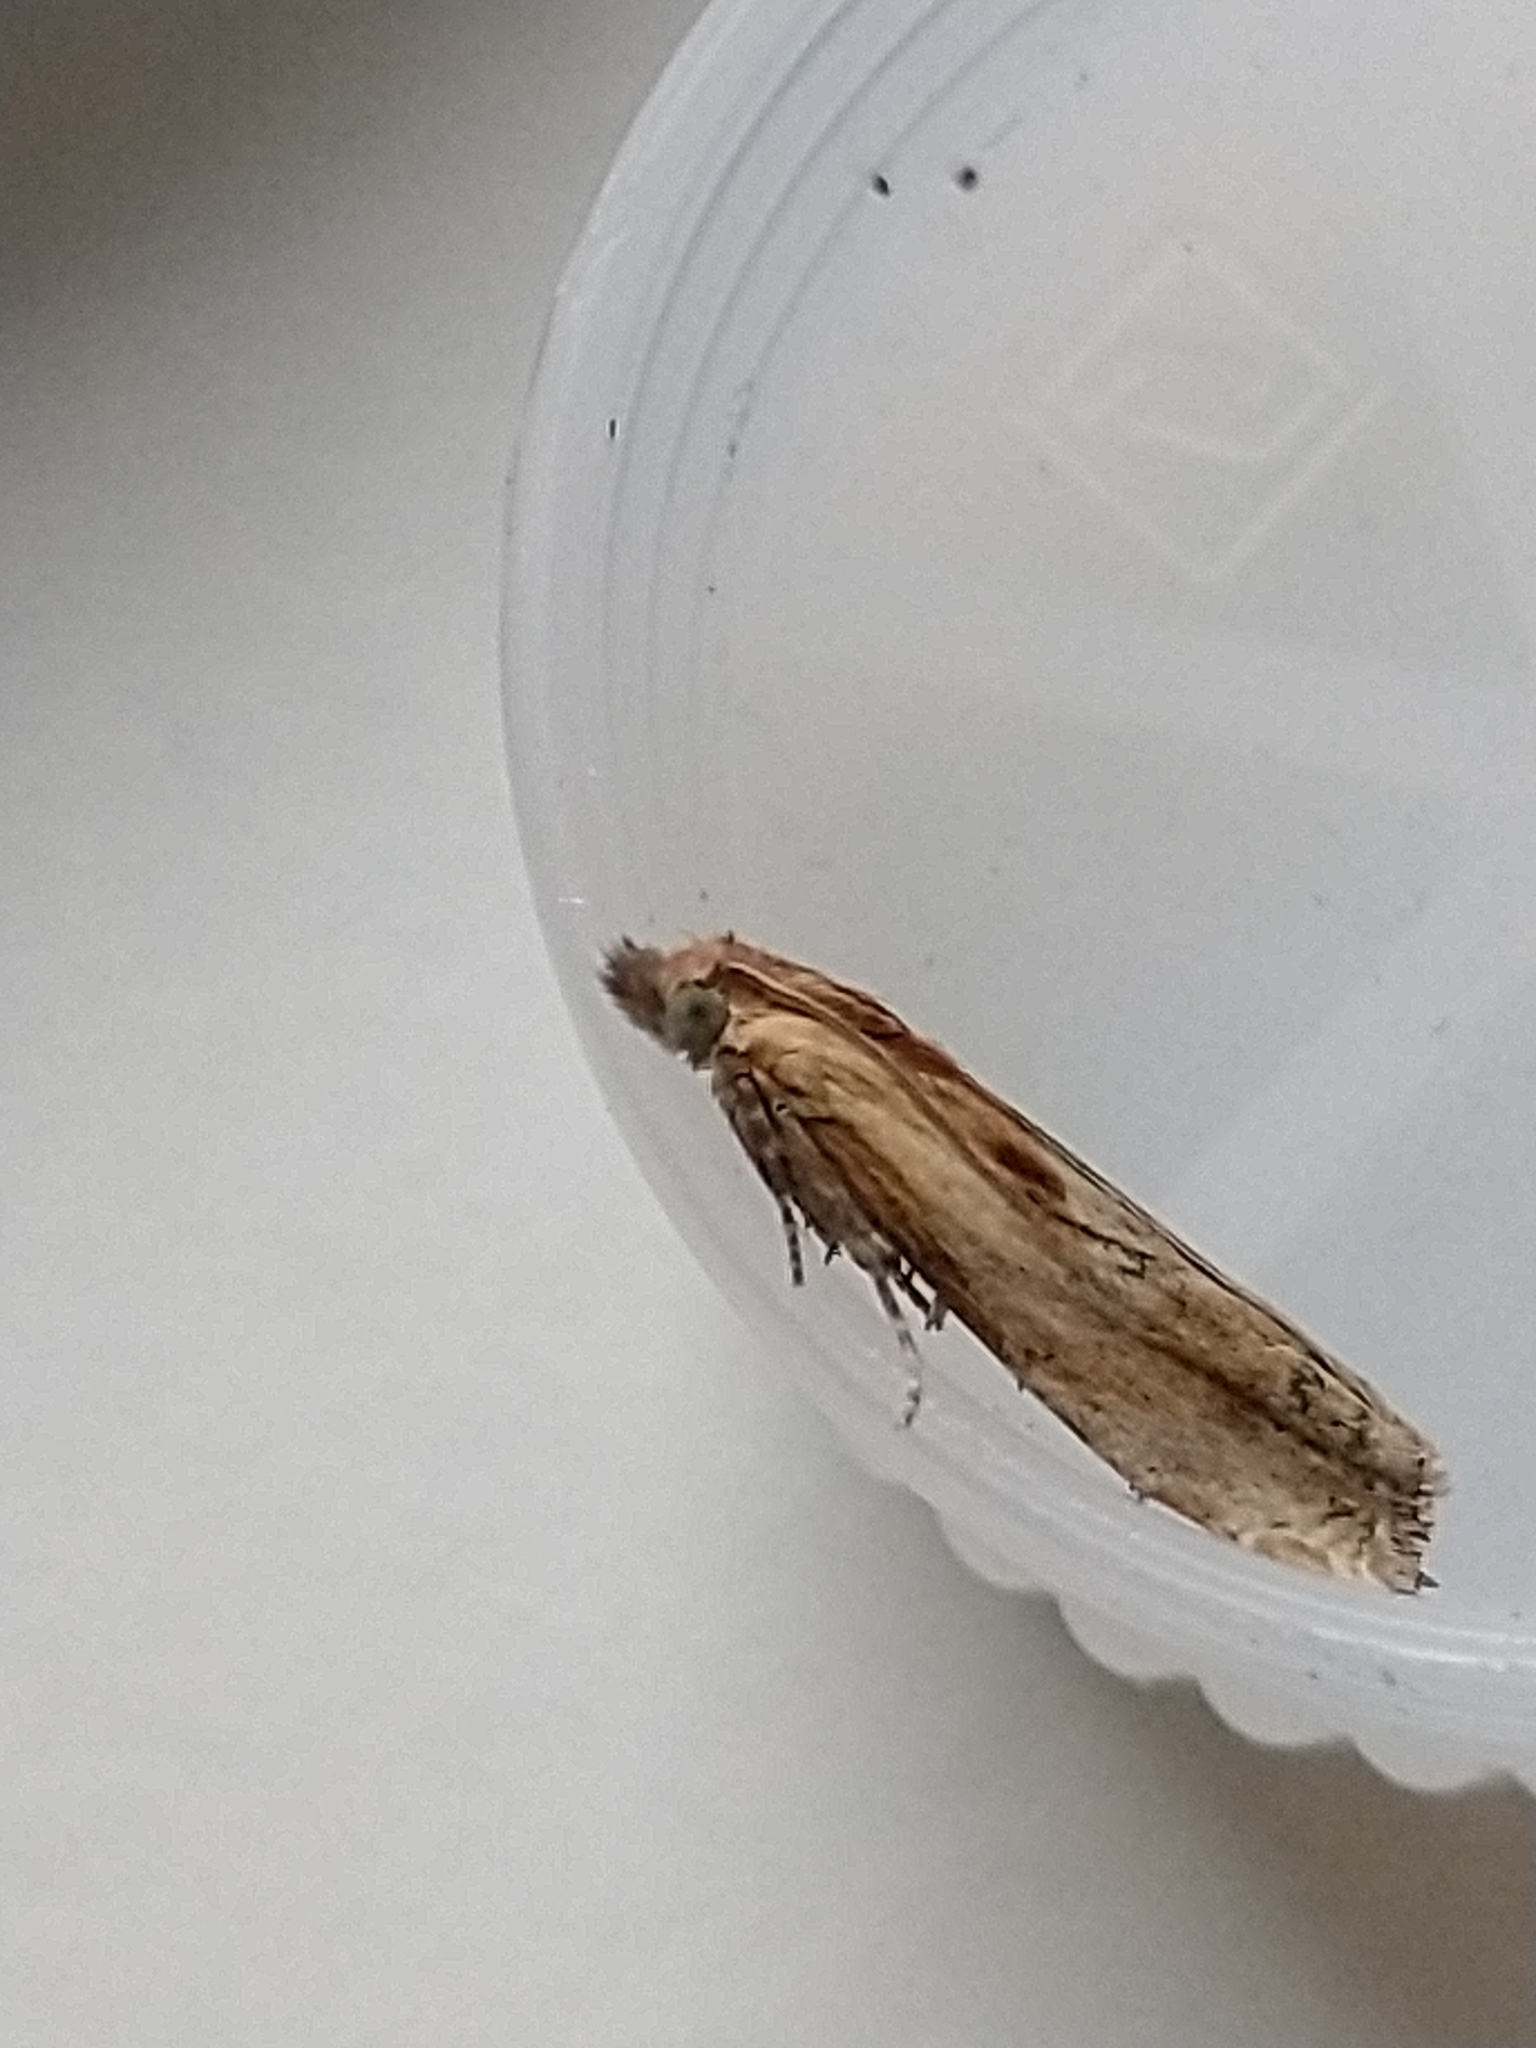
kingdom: Animalia
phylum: Arthropoda
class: Insecta
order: Lepidoptera
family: Tortricidae
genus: Eucosma
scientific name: Eucosma cana
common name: Hoary belle
